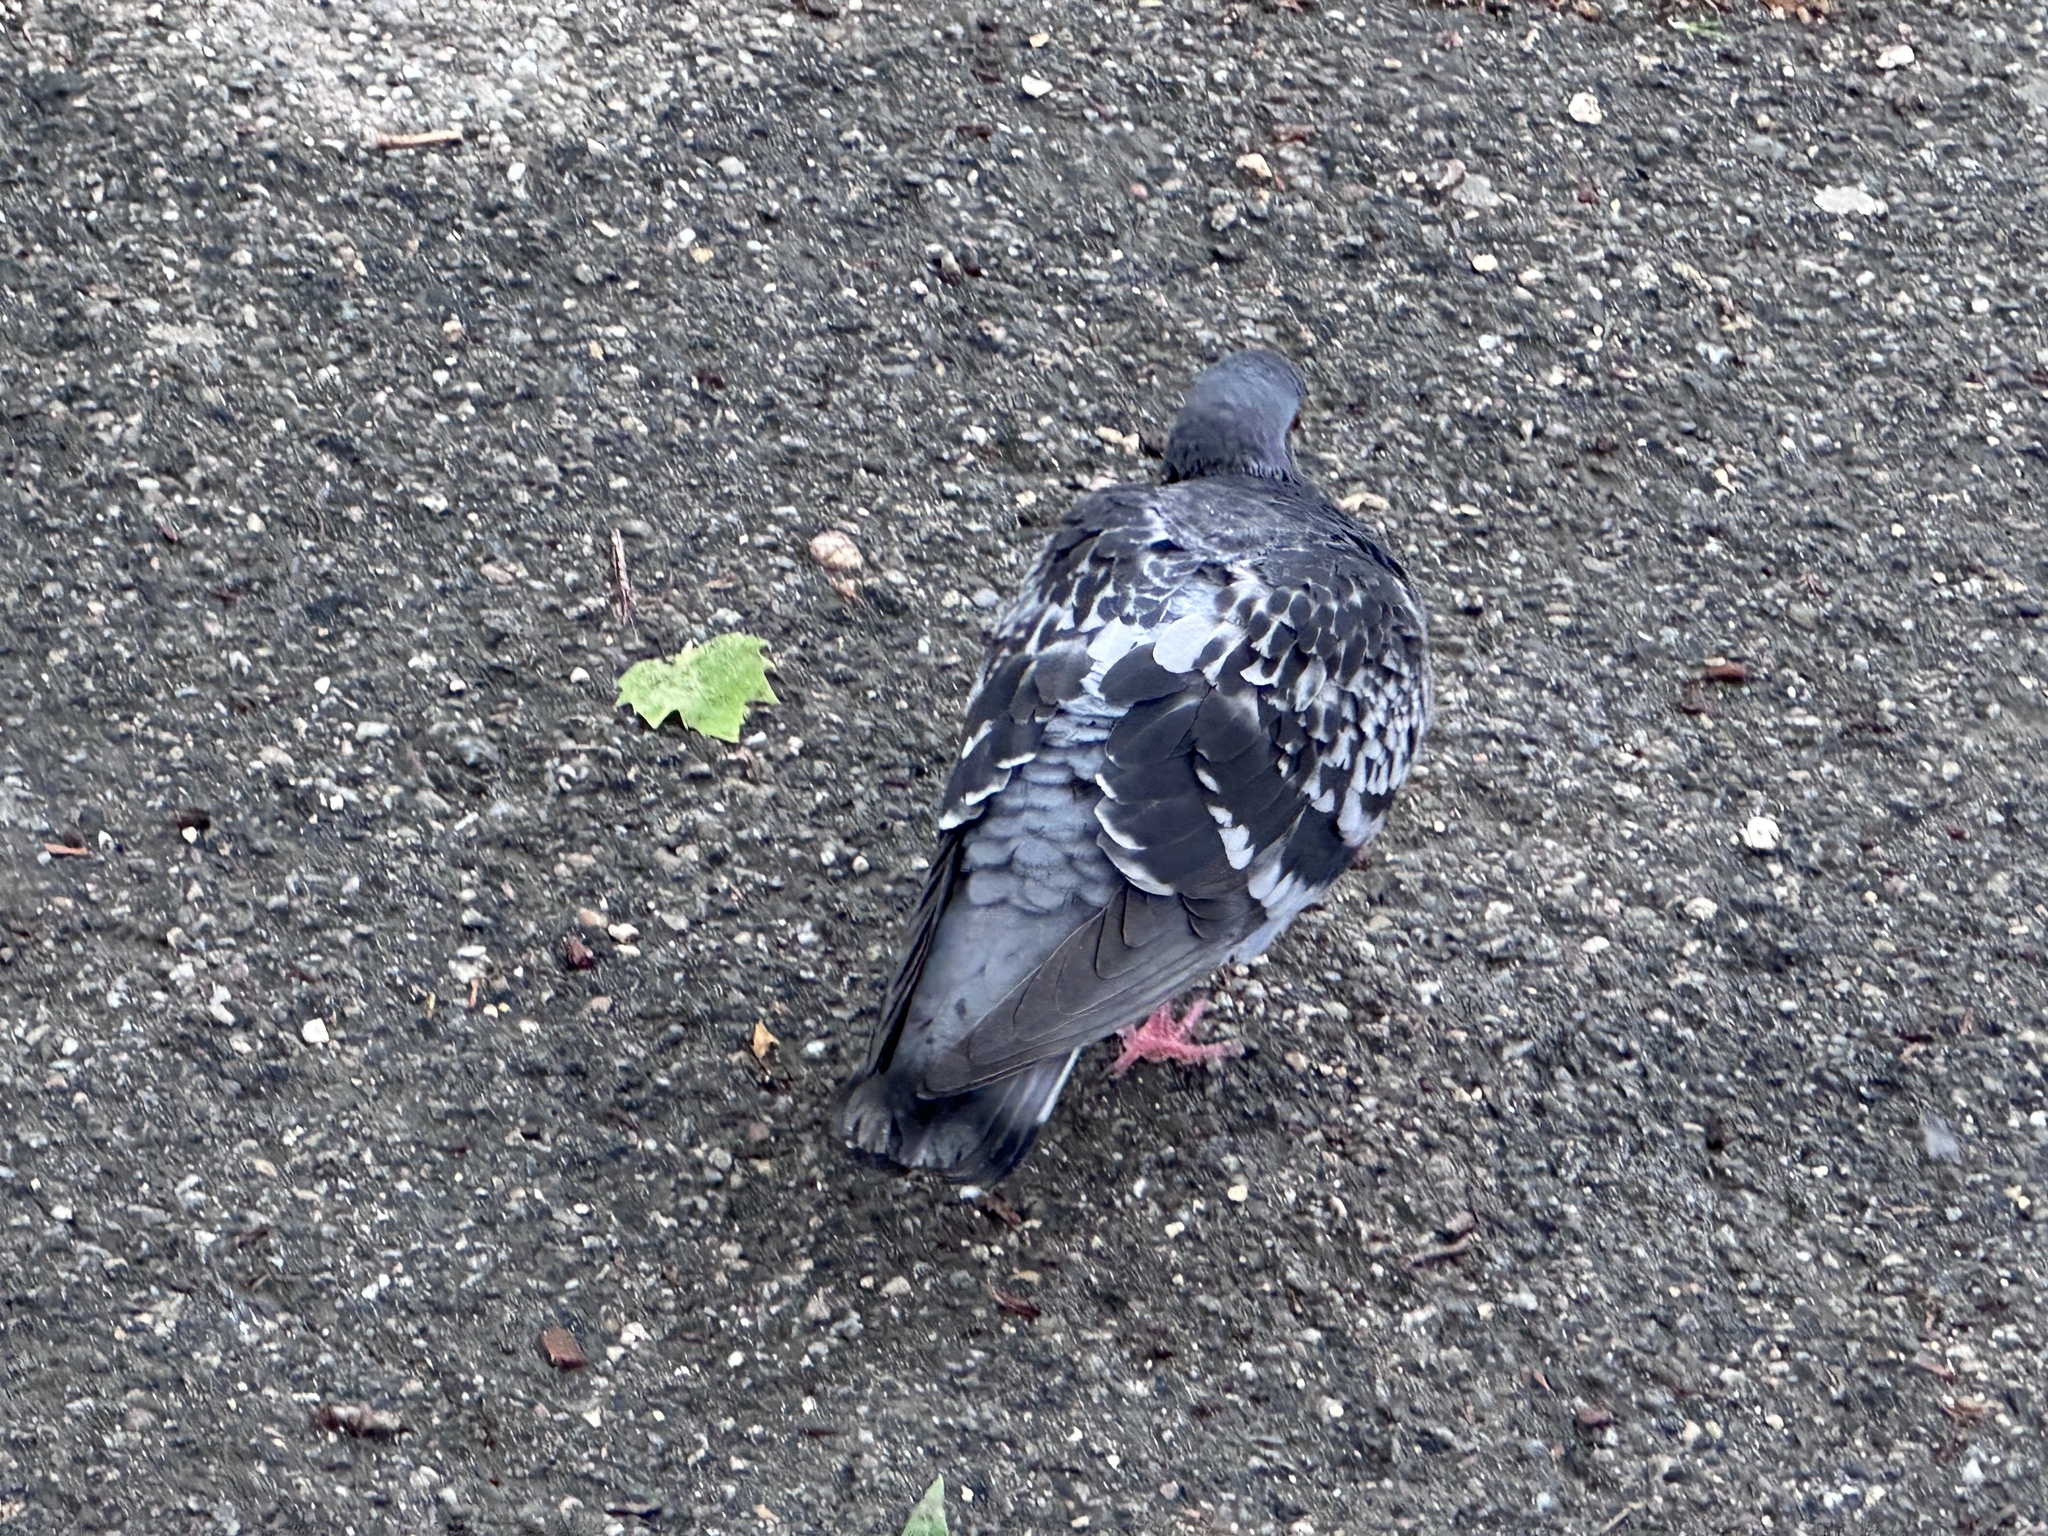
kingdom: Animalia
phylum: Chordata
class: Aves
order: Columbiformes
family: Columbidae
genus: Columba
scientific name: Columba livia
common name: Rock pigeon
